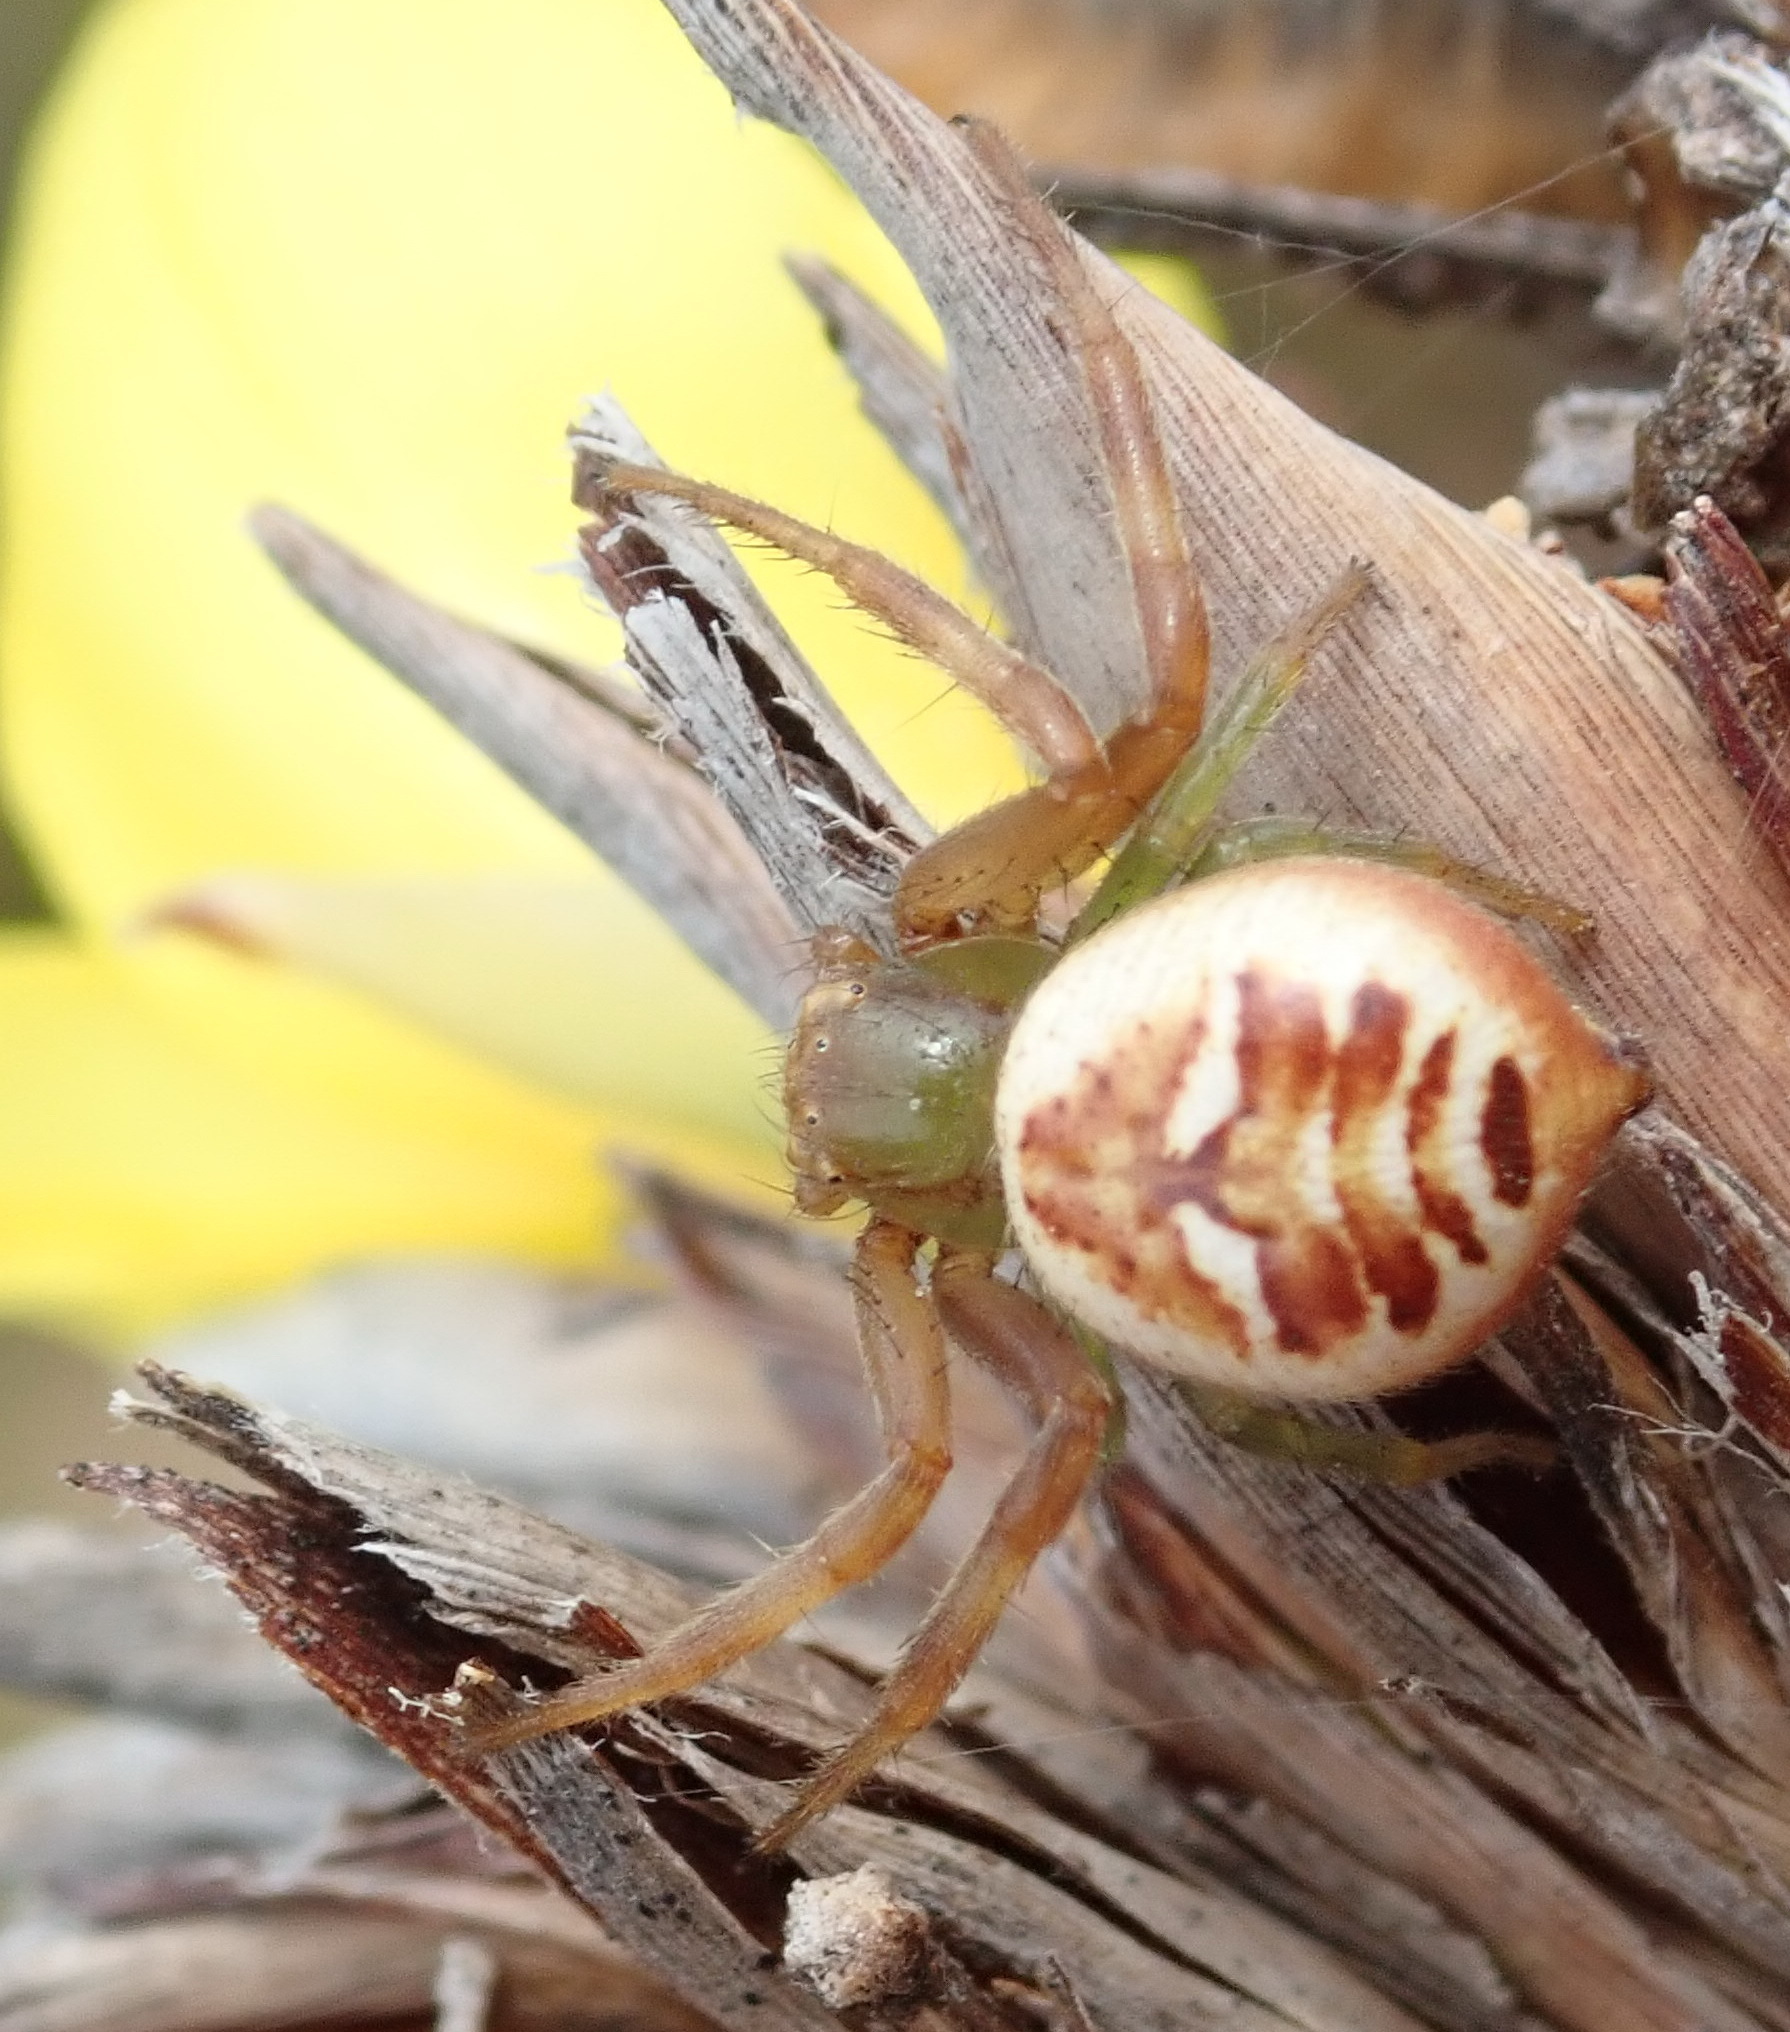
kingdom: Animalia
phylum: Arthropoda
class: Arachnida
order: Araneae
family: Thomisidae
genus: Synema
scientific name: Synema imitatrix
